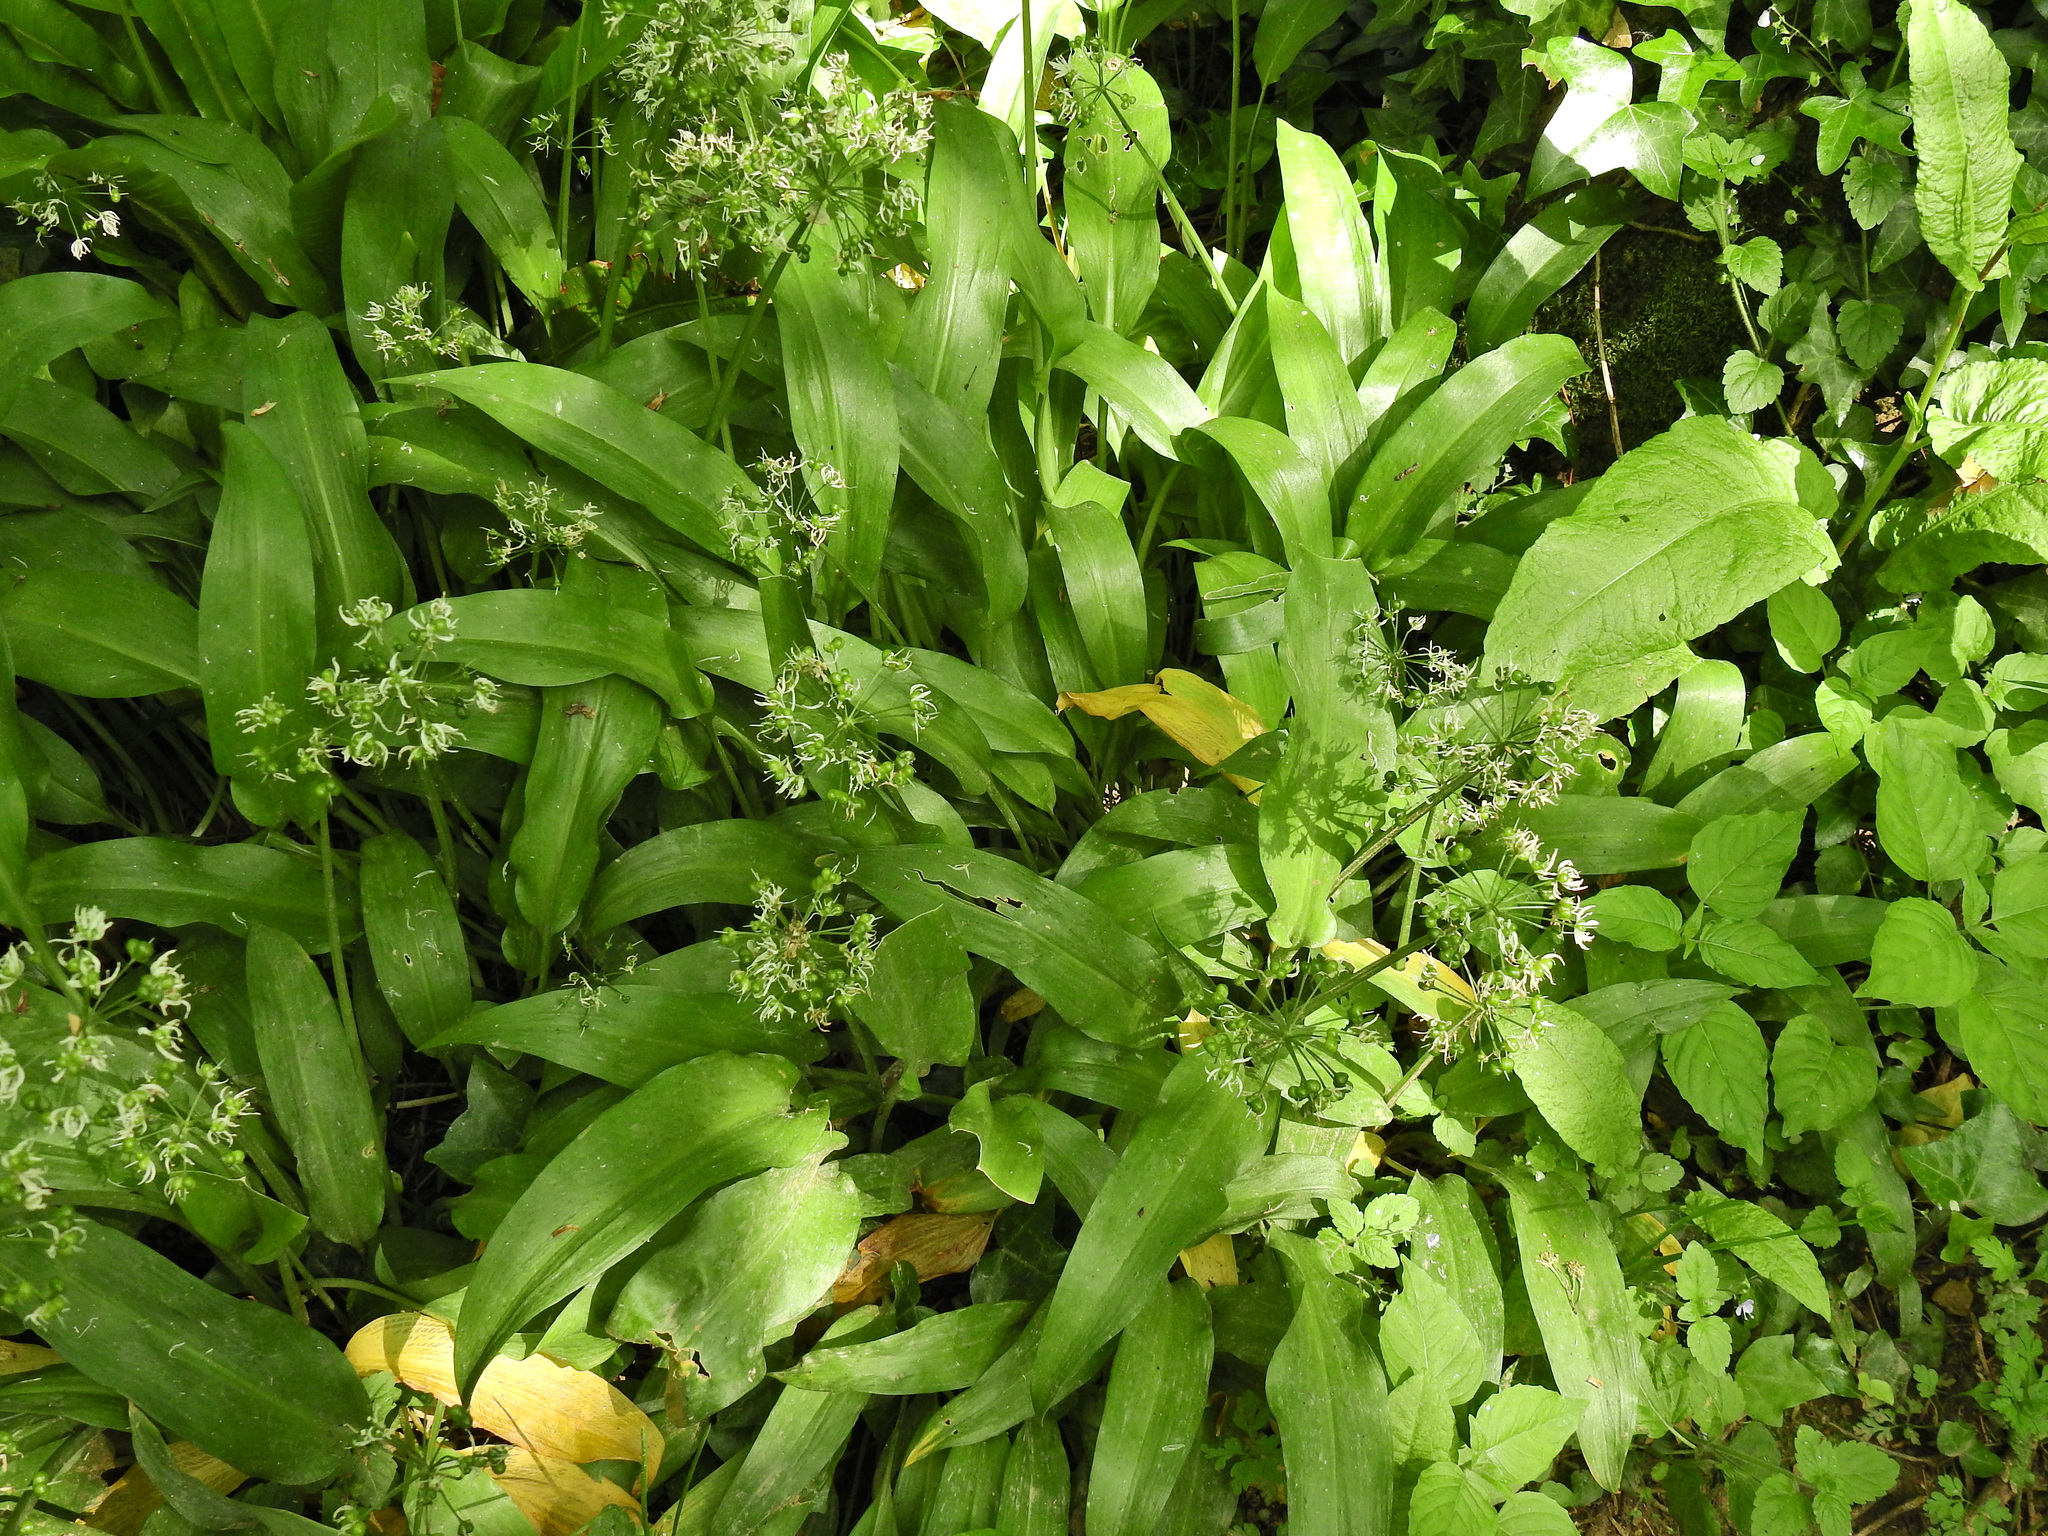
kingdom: Plantae
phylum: Tracheophyta
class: Liliopsida
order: Asparagales
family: Amaryllidaceae
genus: Allium
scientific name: Allium ursinum
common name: Ramsons
